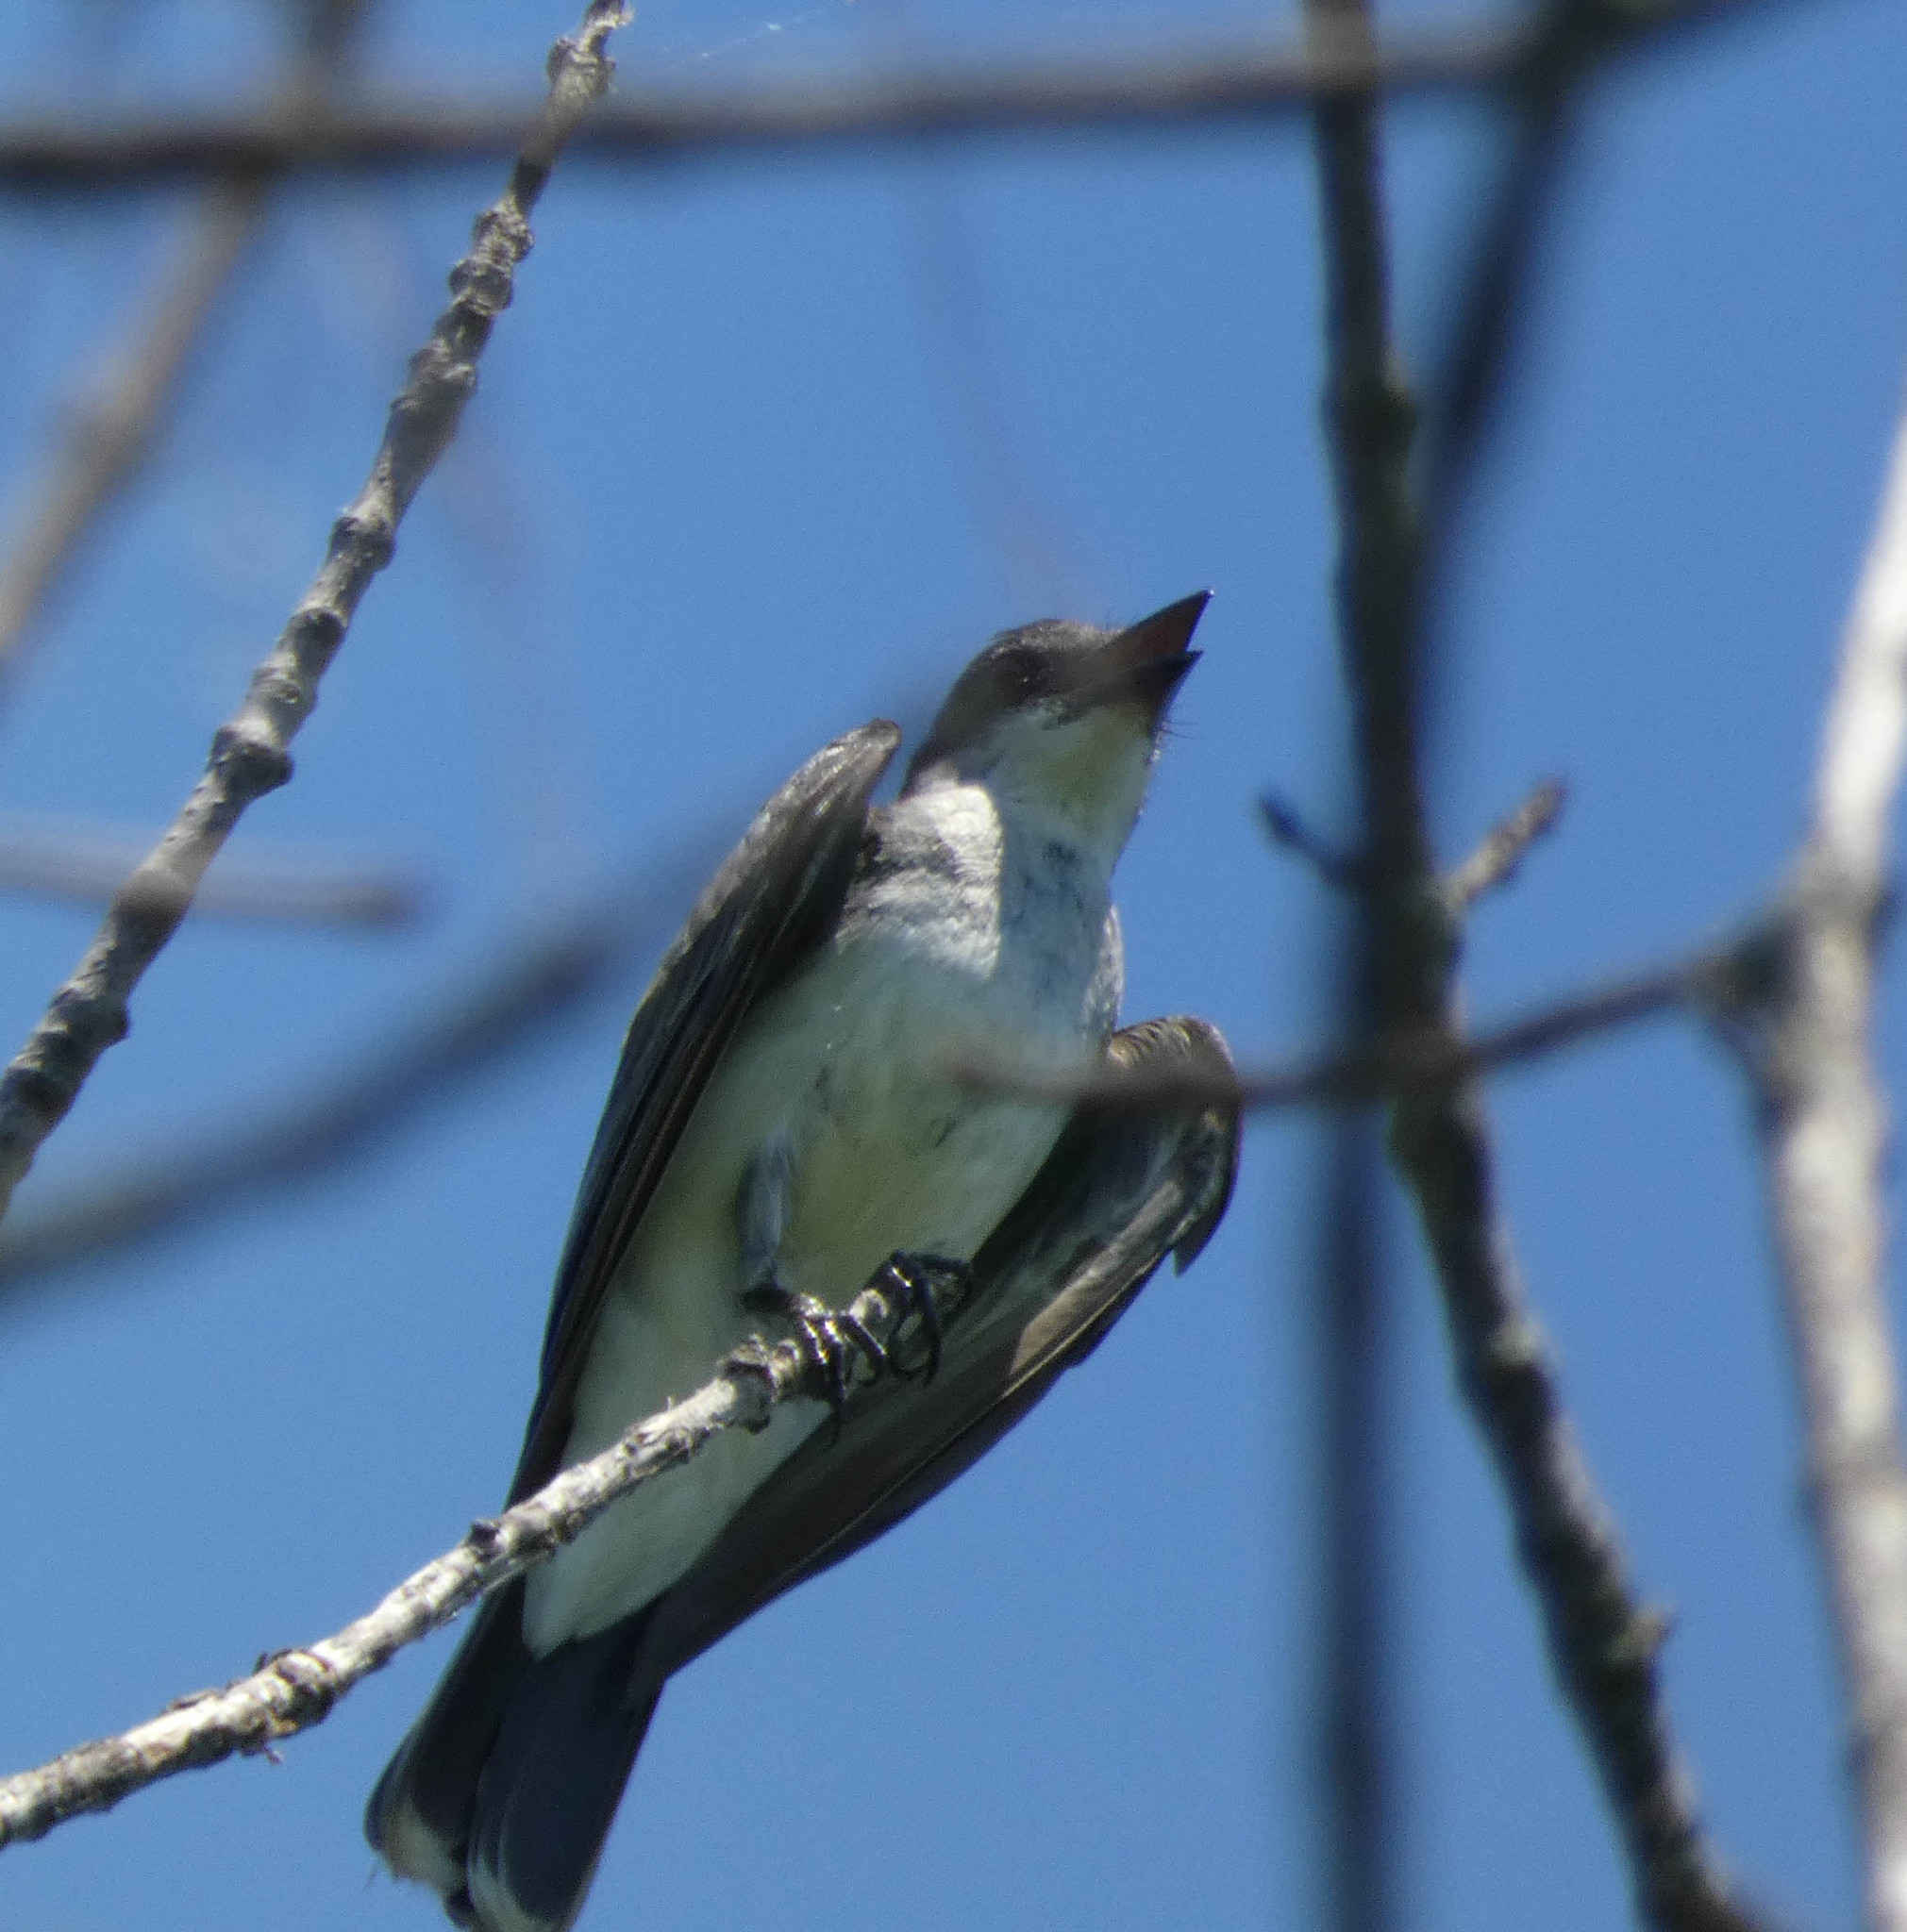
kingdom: Animalia
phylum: Chordata
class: Aves
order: Passeriformes
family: Tyrannidae
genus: Tyrannus
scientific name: Tyrannus tyrannus
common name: Eastern kingbird
